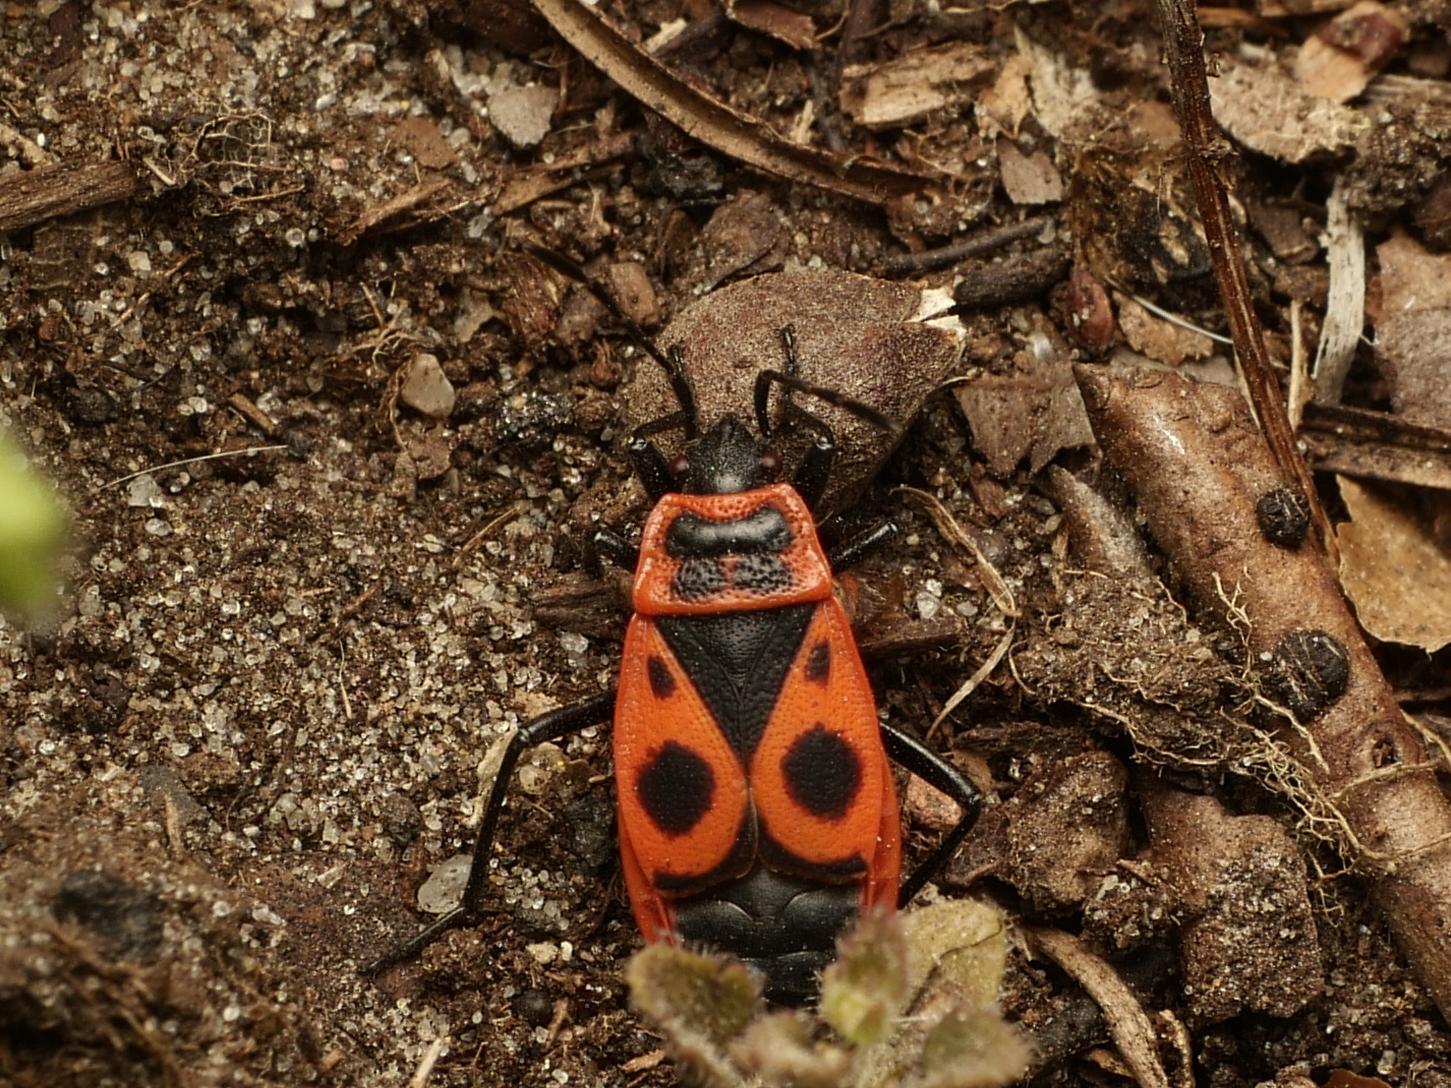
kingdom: Animalia
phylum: Arthropoda
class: Insecta
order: Hemiptera
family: Pyrrhocoridae
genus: Pyrrhocoris
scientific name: Pyrrhocoris apterus
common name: Firebug
